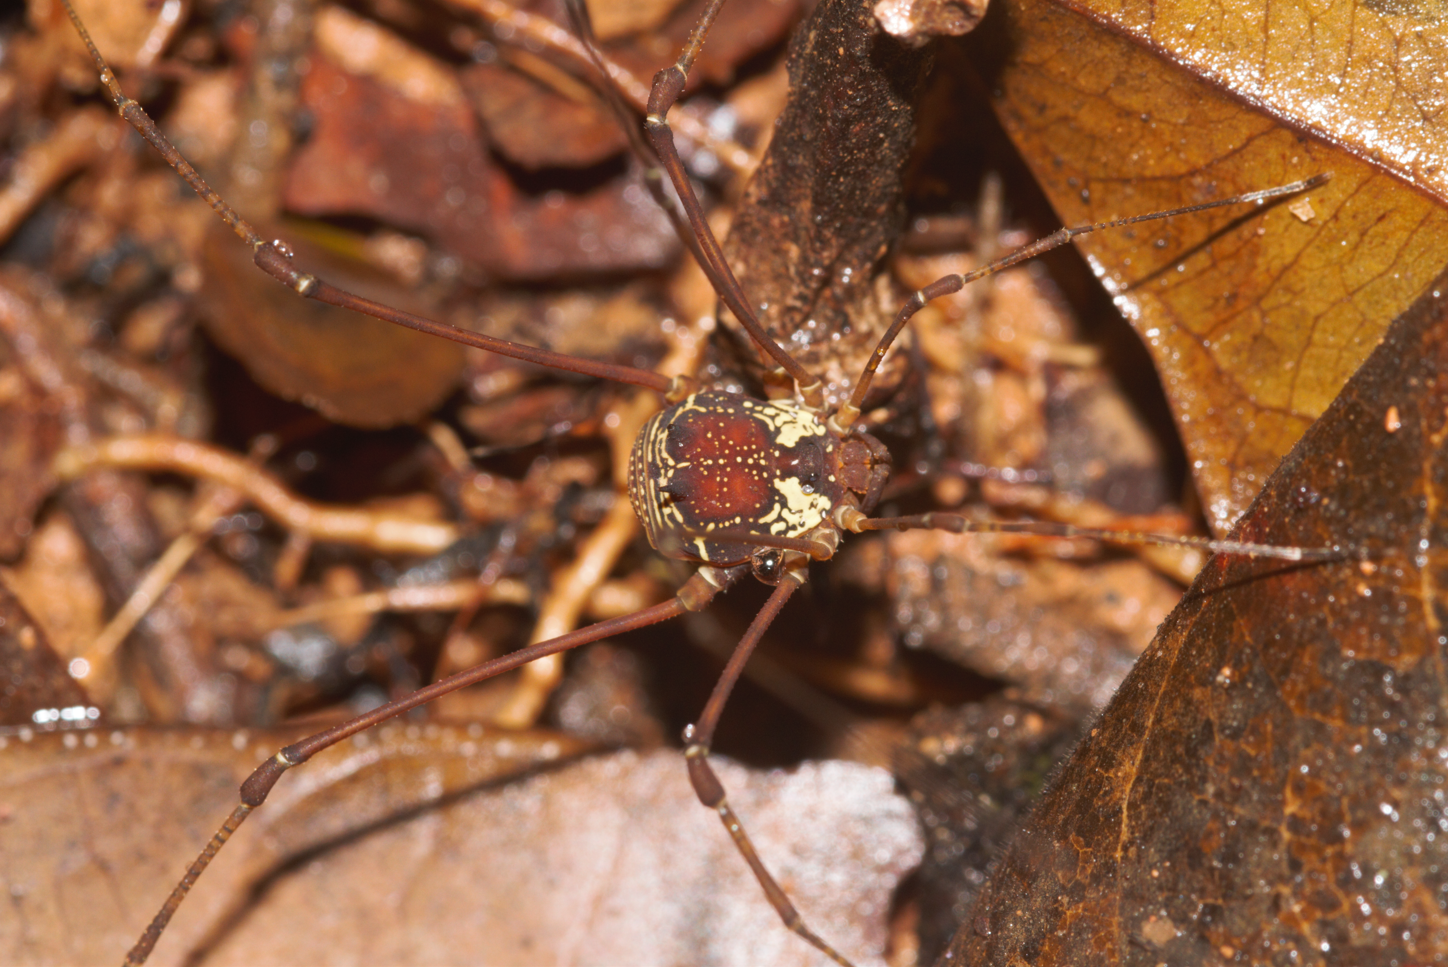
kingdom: Animalia
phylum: Arthropoda
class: Arachnida
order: Opiliones
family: Cosmetidae
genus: Cynorta
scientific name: Cynorta sigillata
